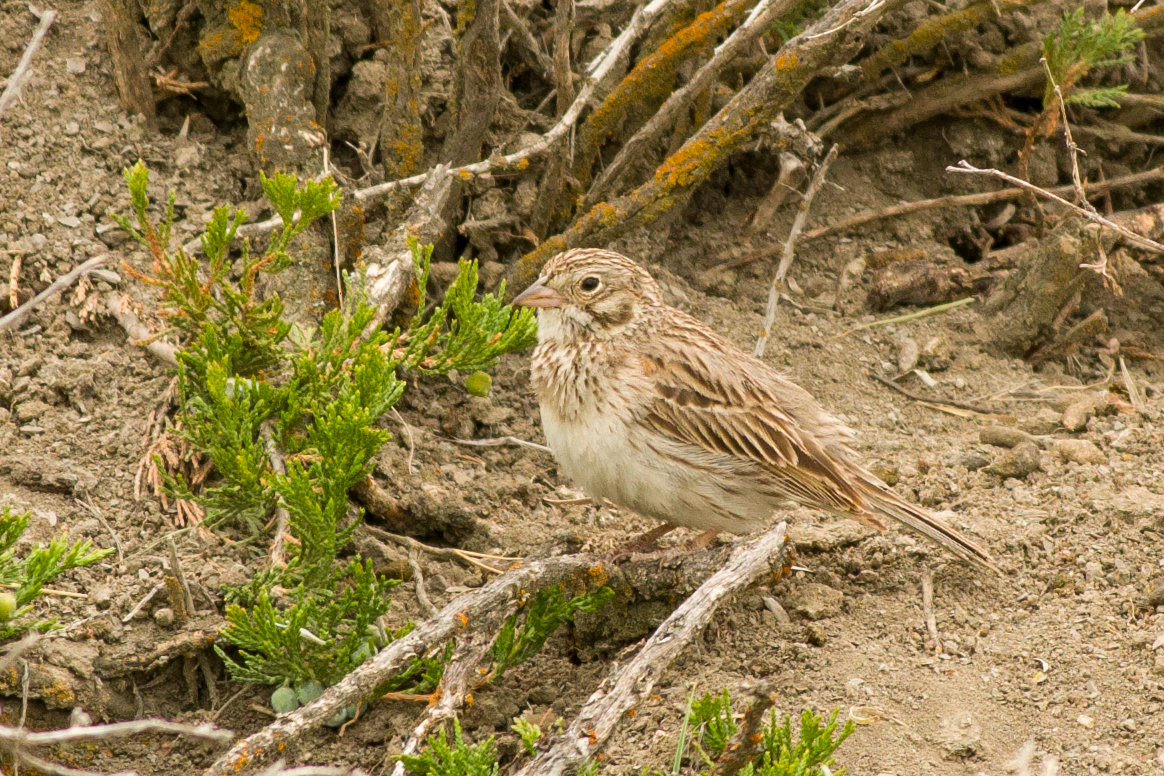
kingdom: Animalia
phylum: Chordata
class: Aves
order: Passeriformes
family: Passerellidae
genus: Pooecetes
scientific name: Pooecetes gramineus
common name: Vesper sparrow
